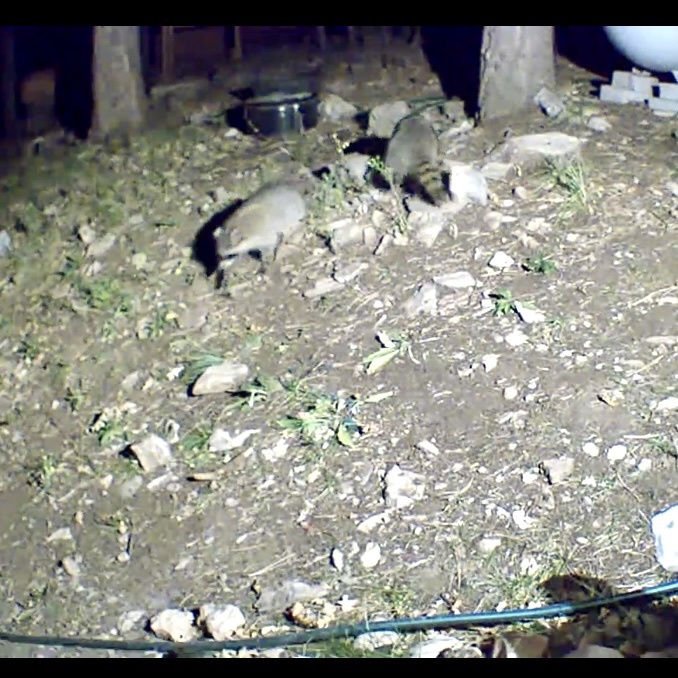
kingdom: Animalia
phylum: Chordata
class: Mammalia
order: Carnivora
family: Procyonidae
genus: Procyon
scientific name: Procyon lotor
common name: Raccoon
